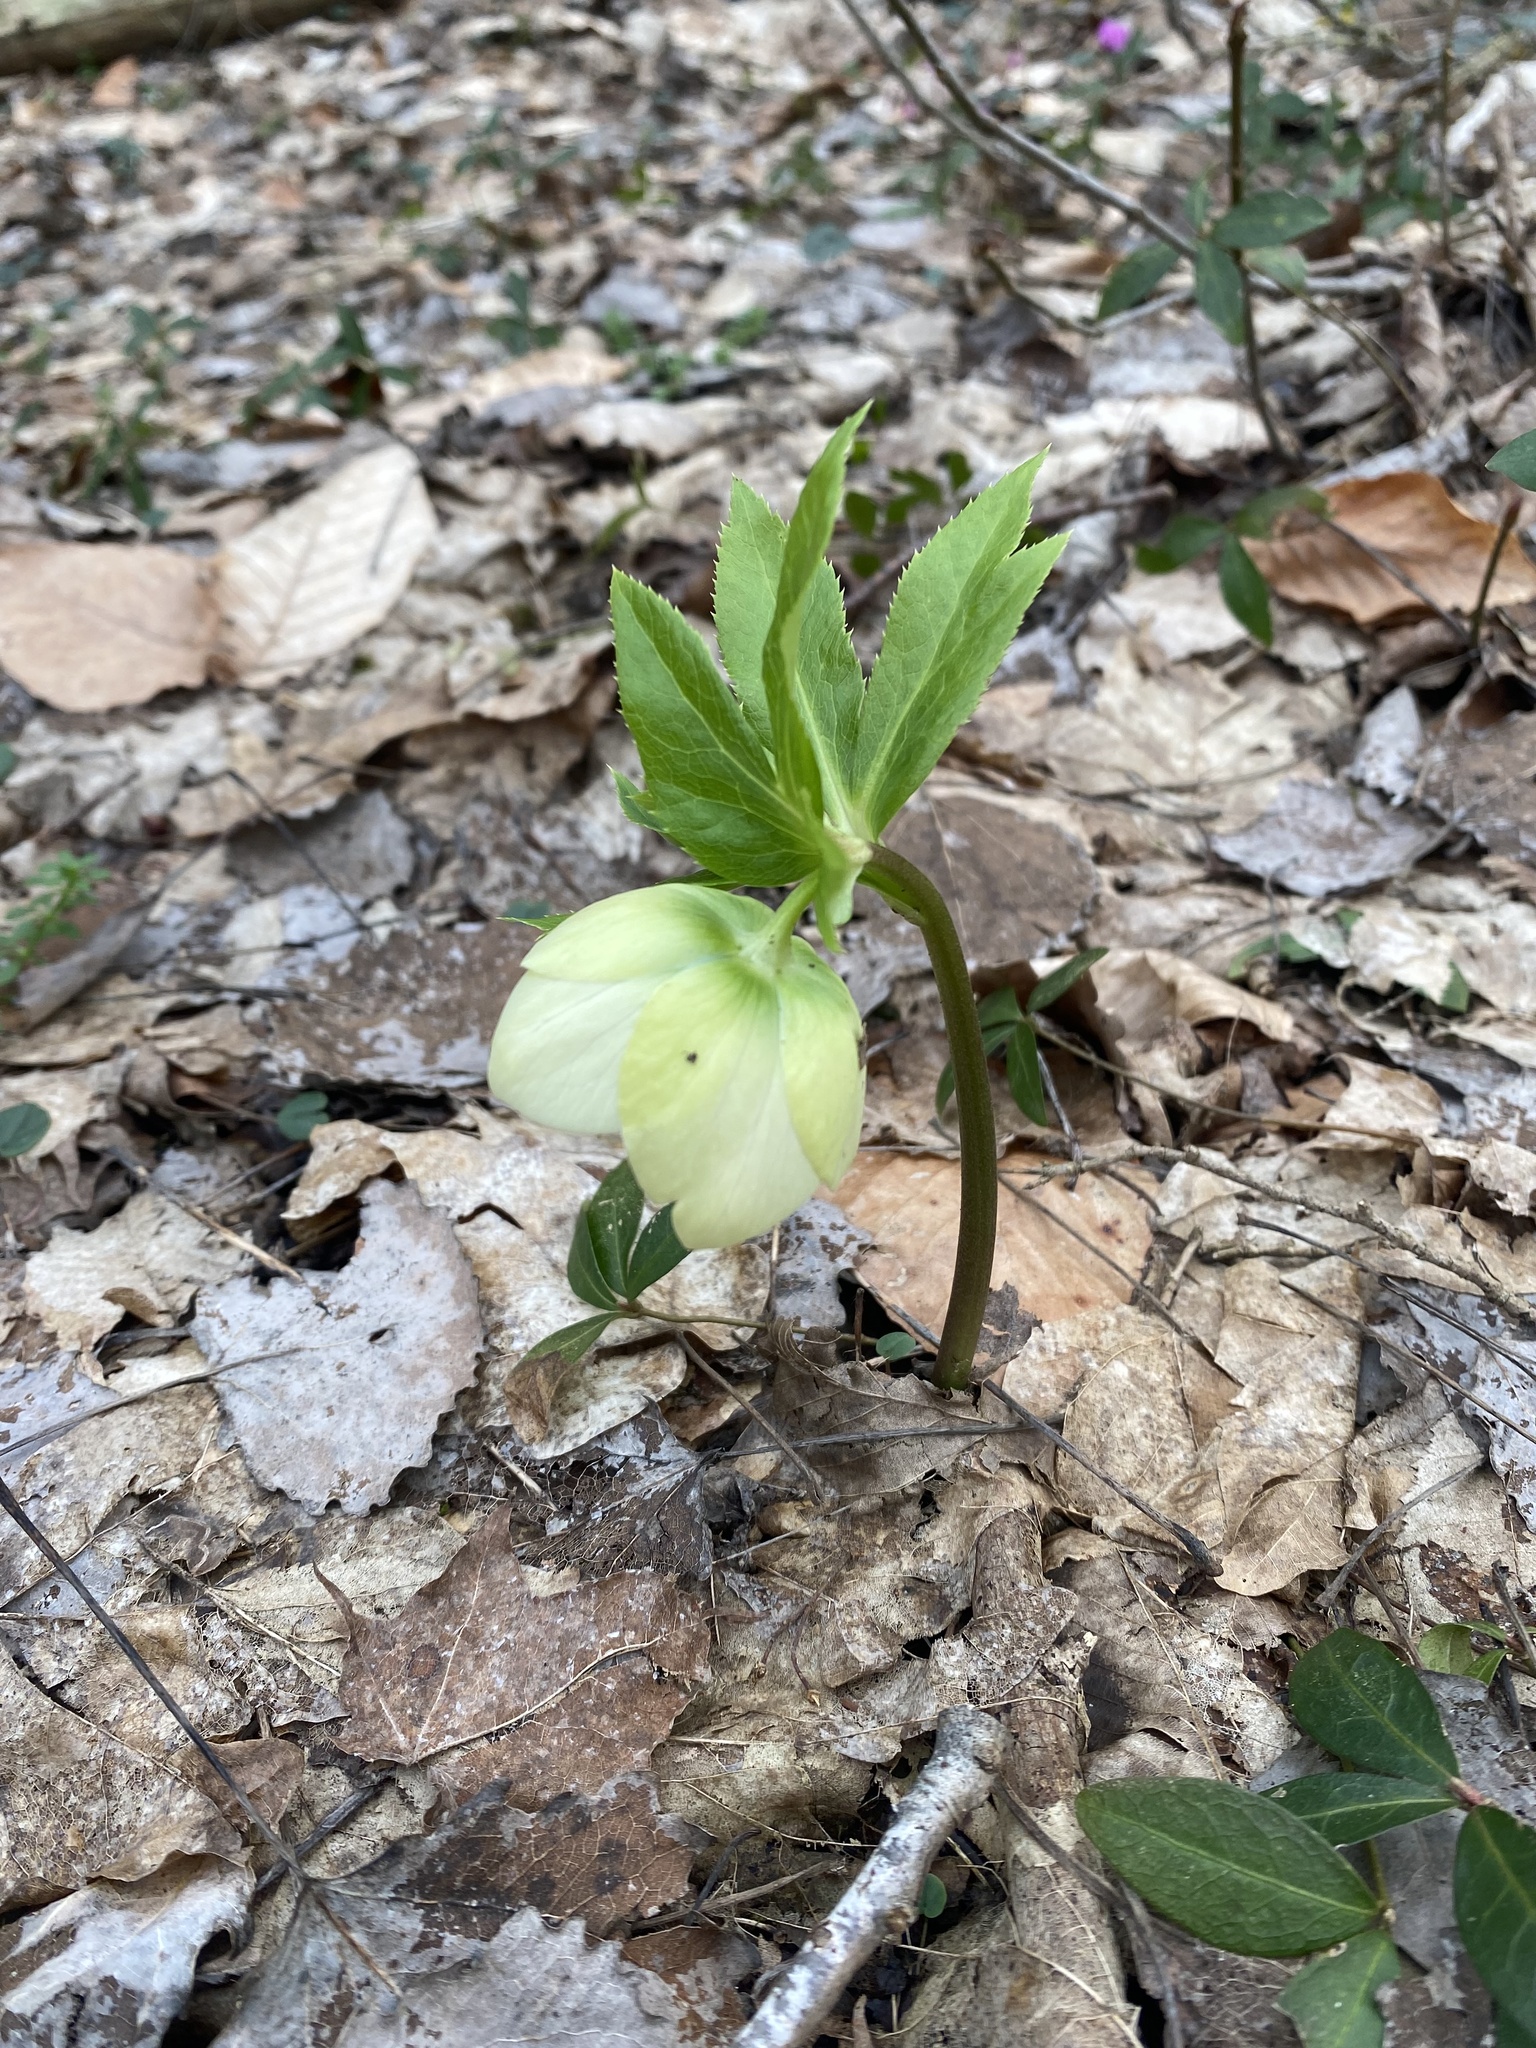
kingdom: Plantae
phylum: Tracheophyta
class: Magnoliopsida
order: Ranunculales
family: Ranunculaceae
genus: Helleborus
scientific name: Helleborus orientalis
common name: Lenten-rose
